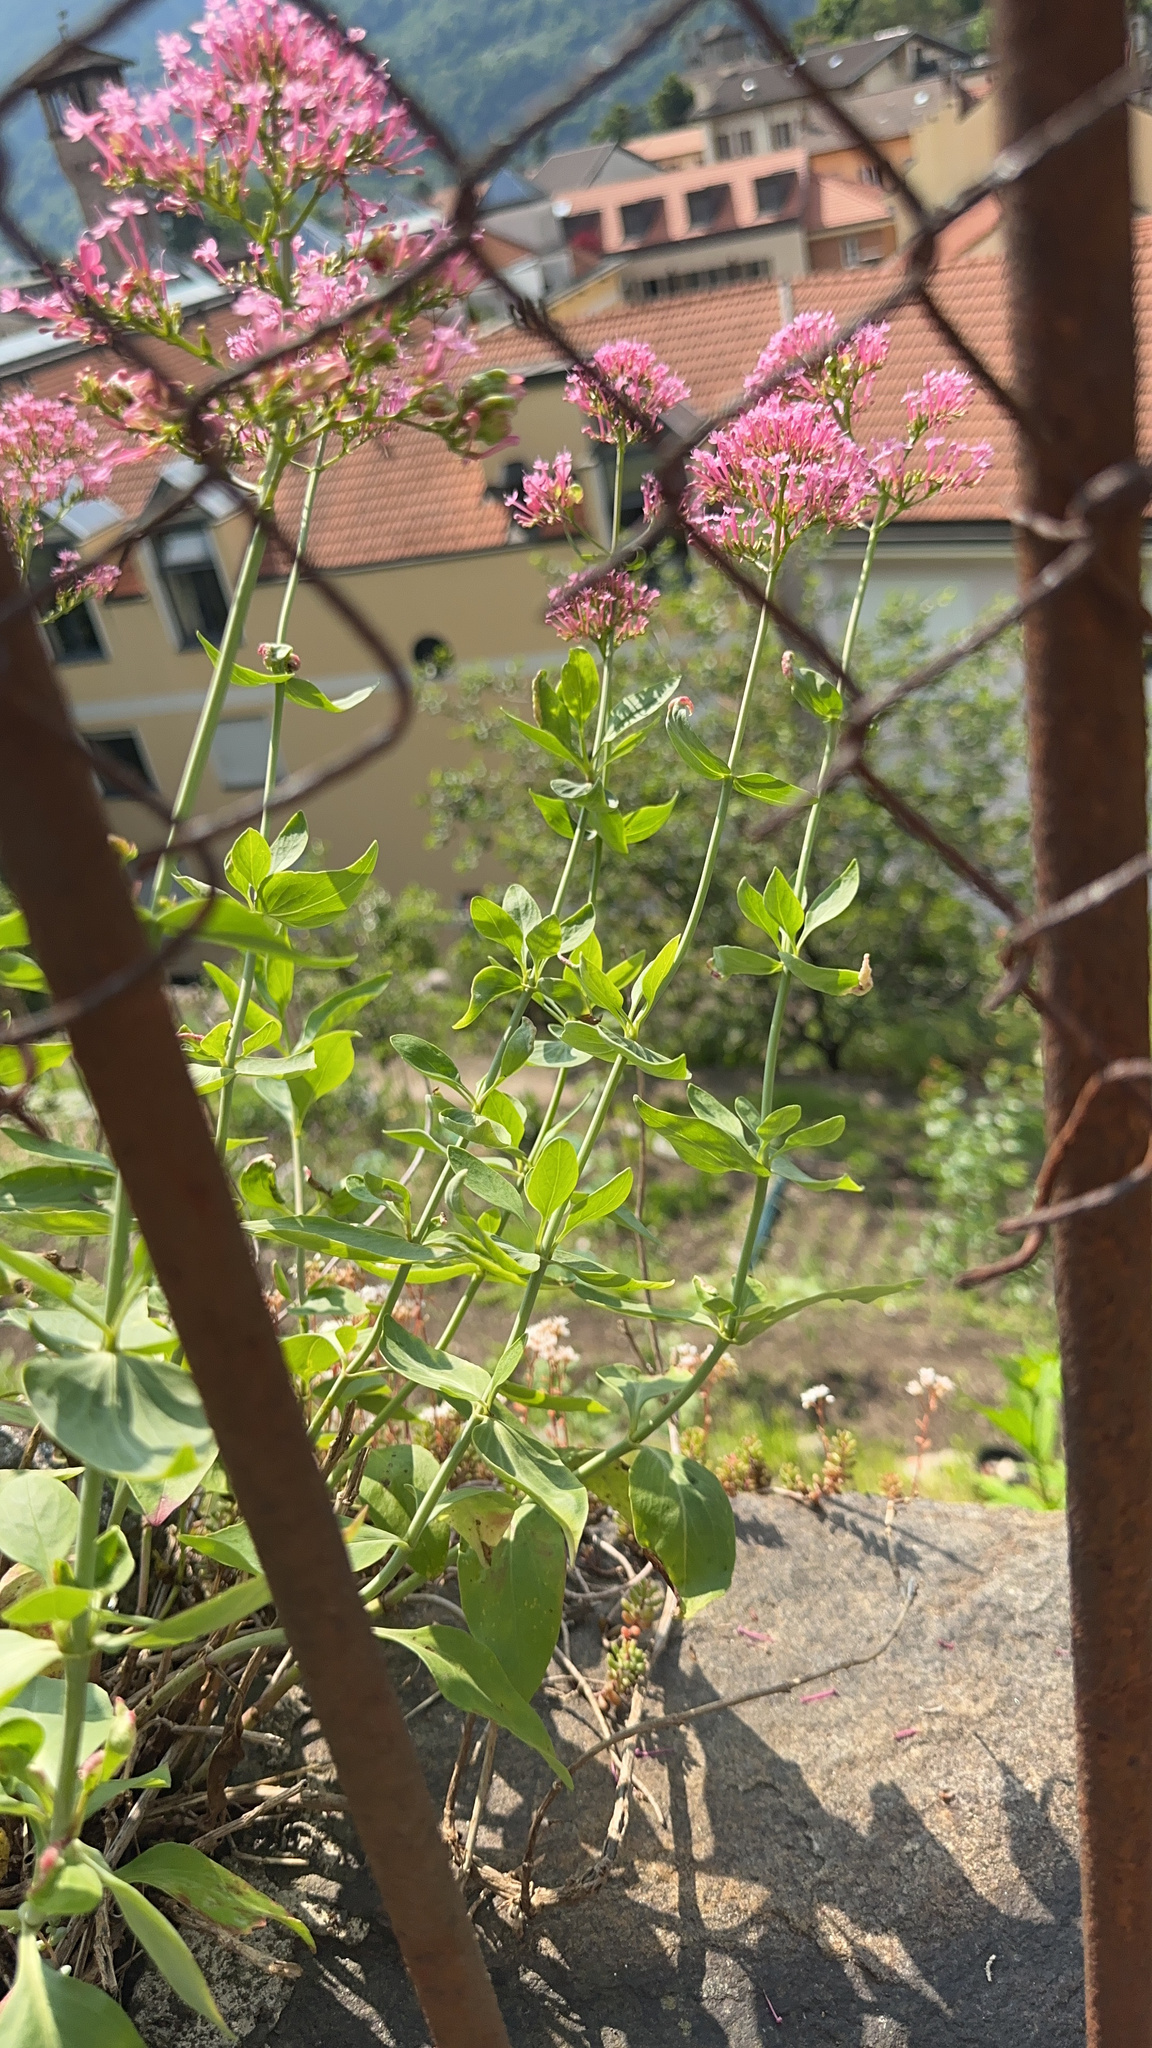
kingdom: Plantae
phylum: Tracheophyta
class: Magnoliopsida
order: Dipsacales
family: Caprifoliaceae
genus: Centranthus
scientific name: Centranthus ruber
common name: Red valerian
